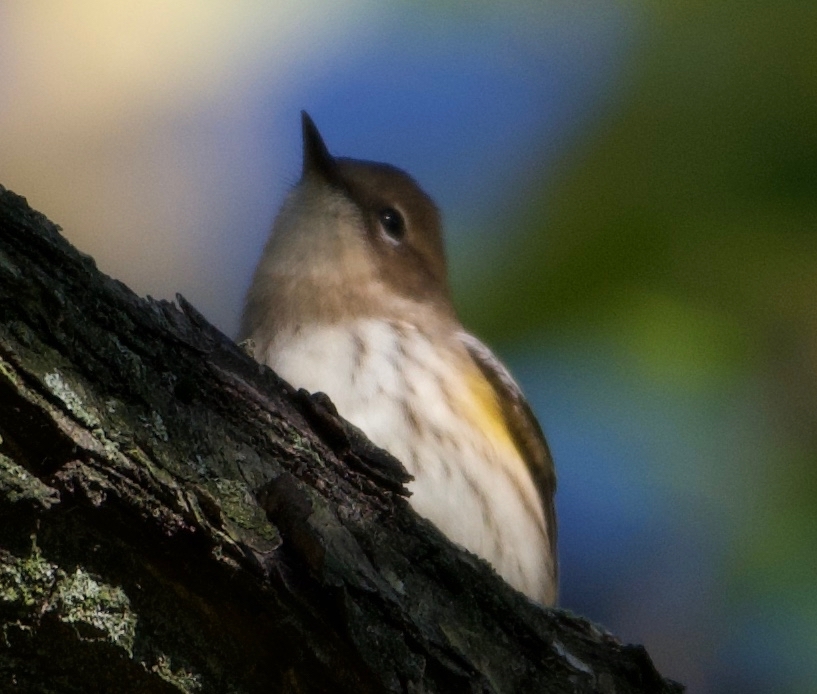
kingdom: Animalia
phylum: Chordata
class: Aves
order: Passeriformes
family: Parulidae
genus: Setophaga
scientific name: Setophaga coronata
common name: Myrtle warbler
